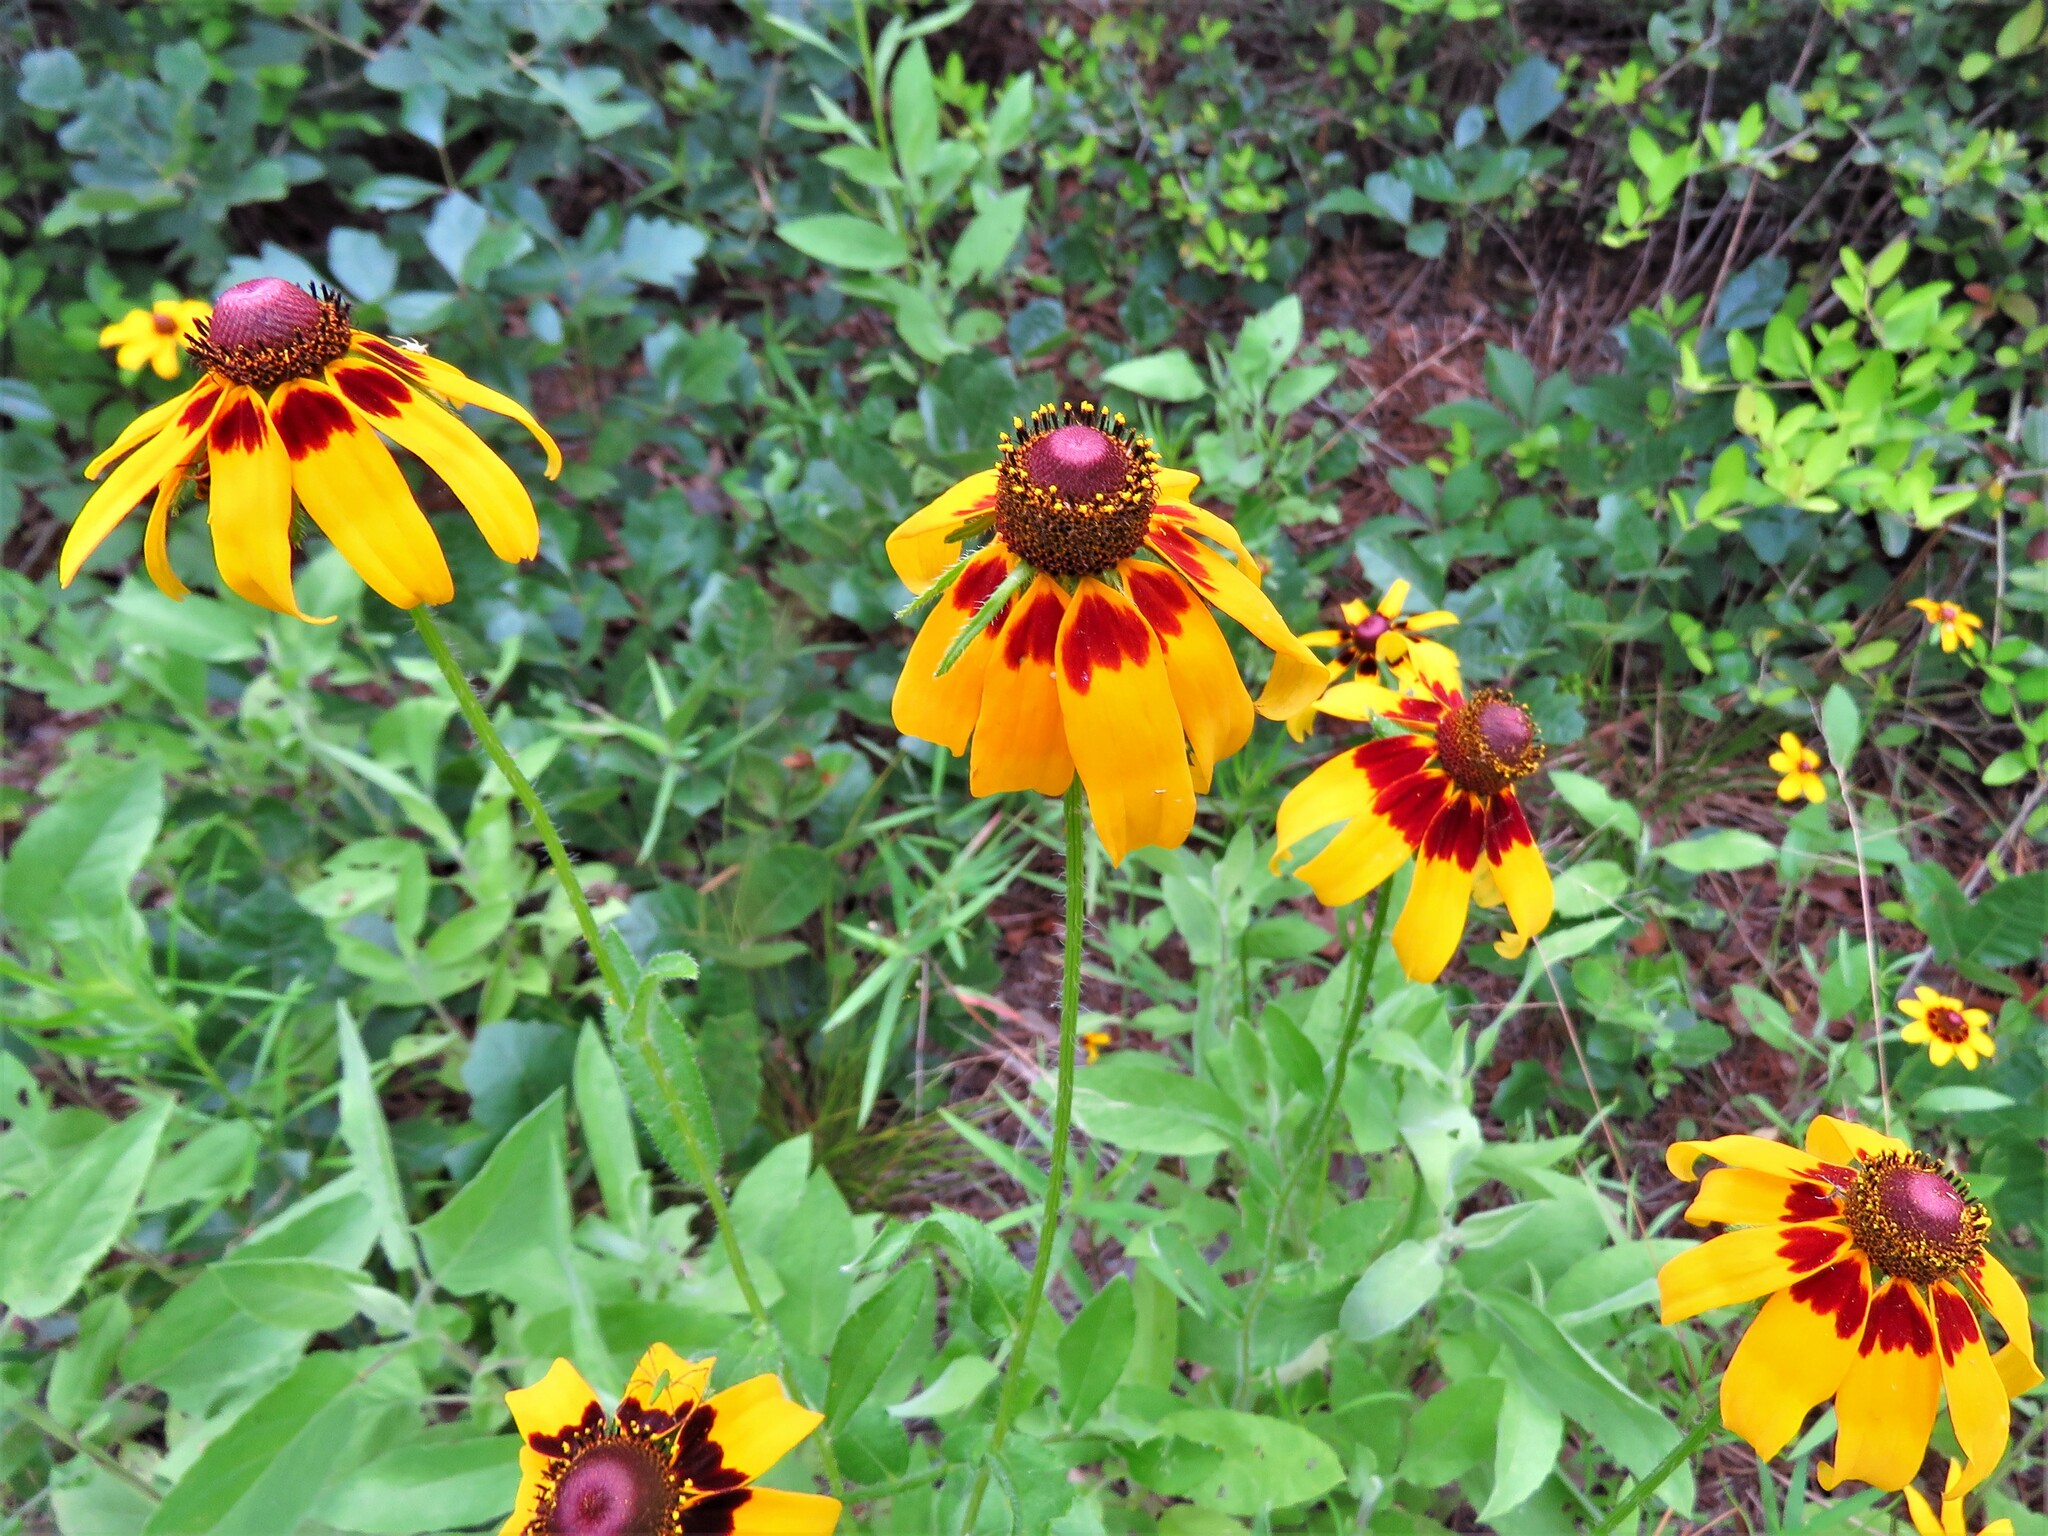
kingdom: Plantae
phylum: Tracheophyta
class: Magnoliopsida
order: Asterales
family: Asteraceae
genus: Rudbeckia
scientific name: Rudbeckia hirta
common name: Black-eyed-susan
